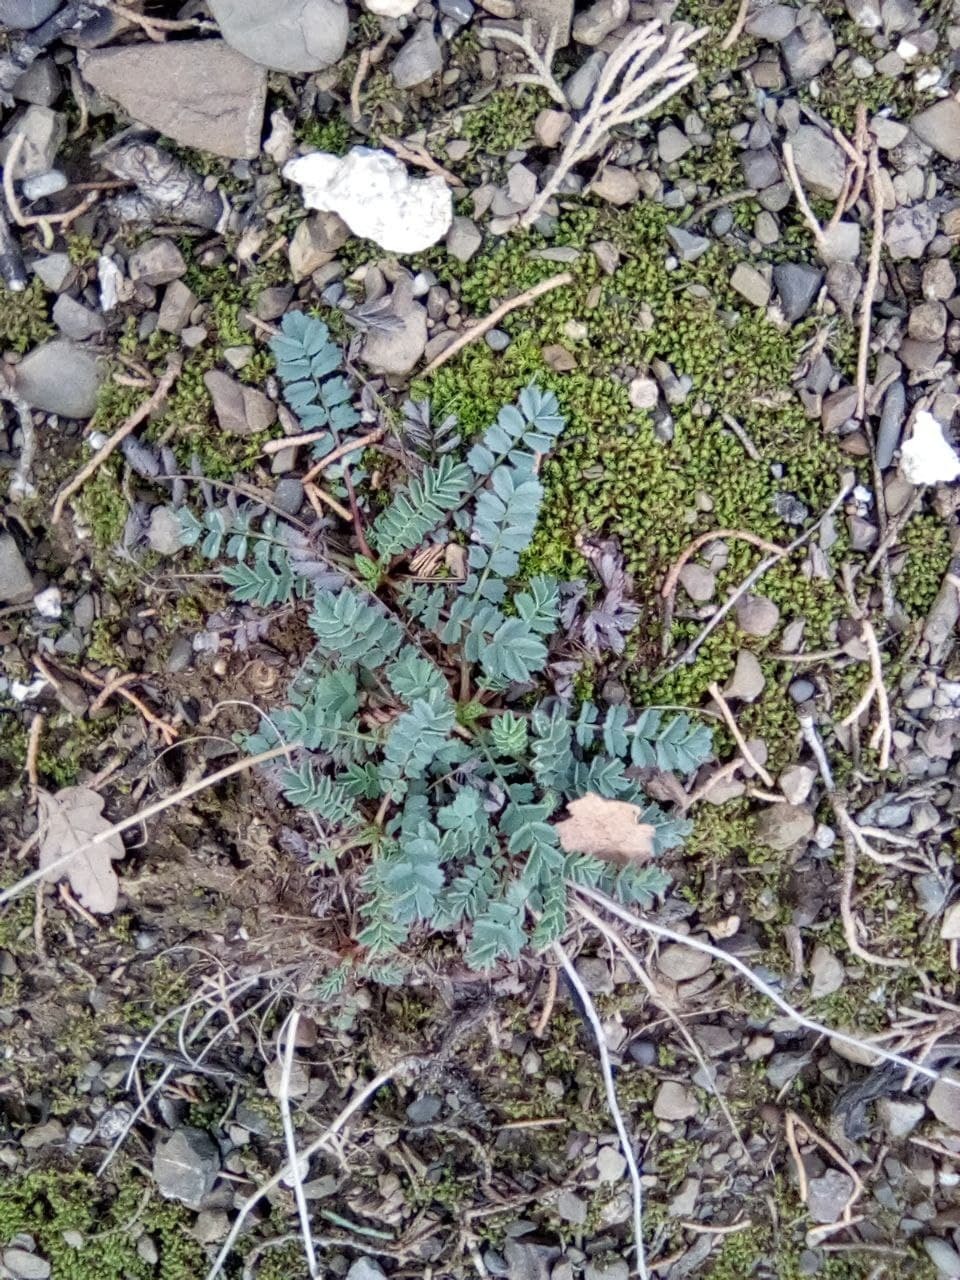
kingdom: Plantae
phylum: Tracheophyta
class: Magnoliopsida
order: Rosales
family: Rosaceae
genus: Poterium
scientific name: Poterium sanguisorba
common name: Salad burnet
